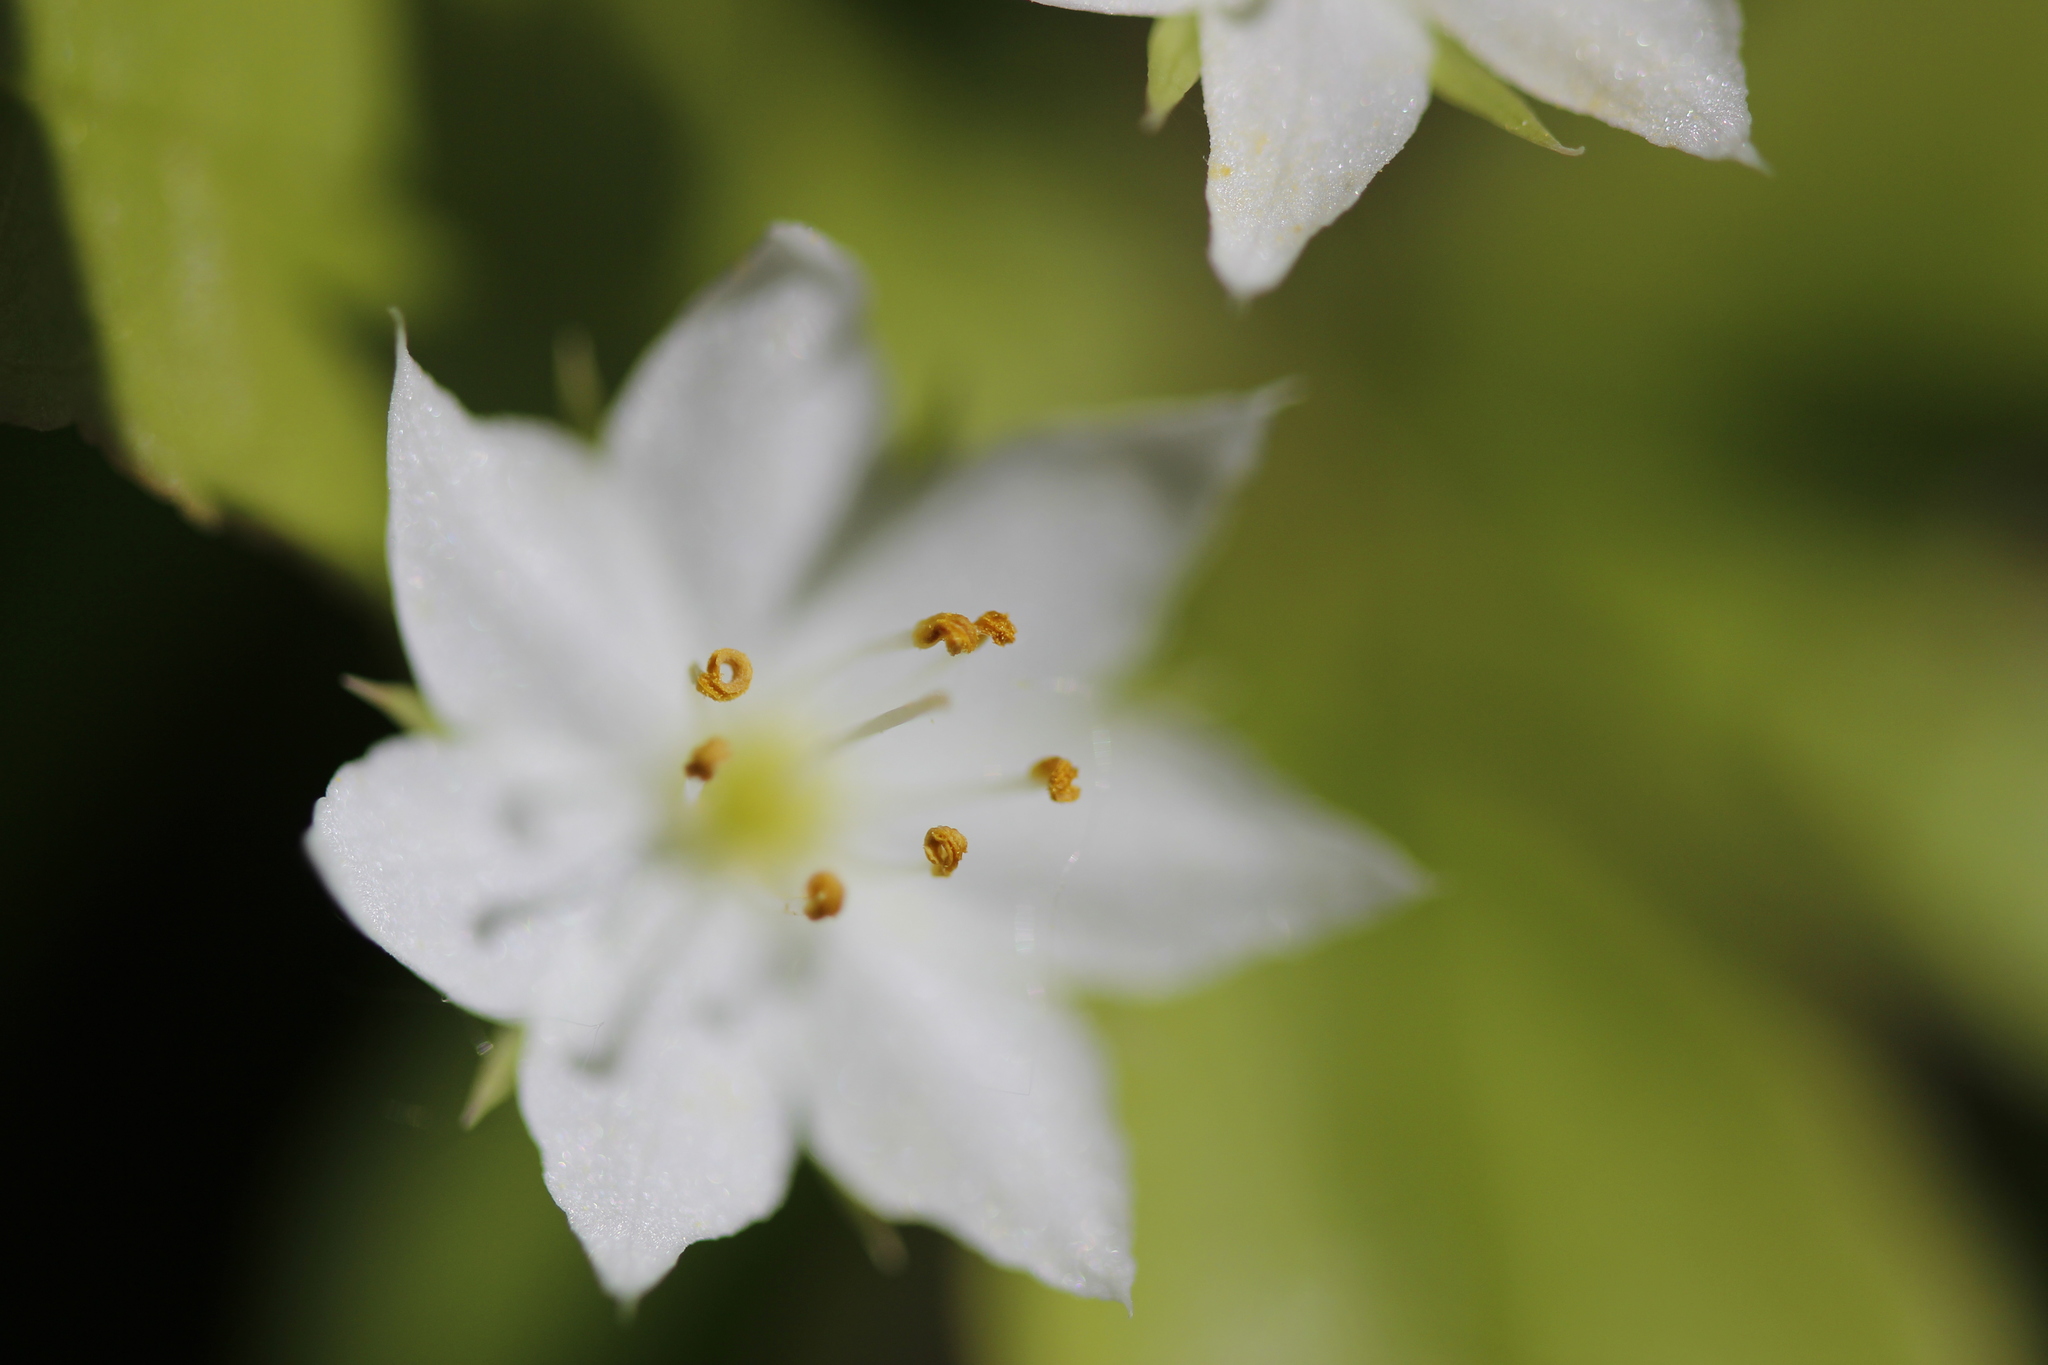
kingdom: Plantae
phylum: Tracheophyta
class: Magnoliopsida
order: Ericales
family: Primulaceae
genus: Lysimachia
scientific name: Lysimachia borealis
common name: American starflower
